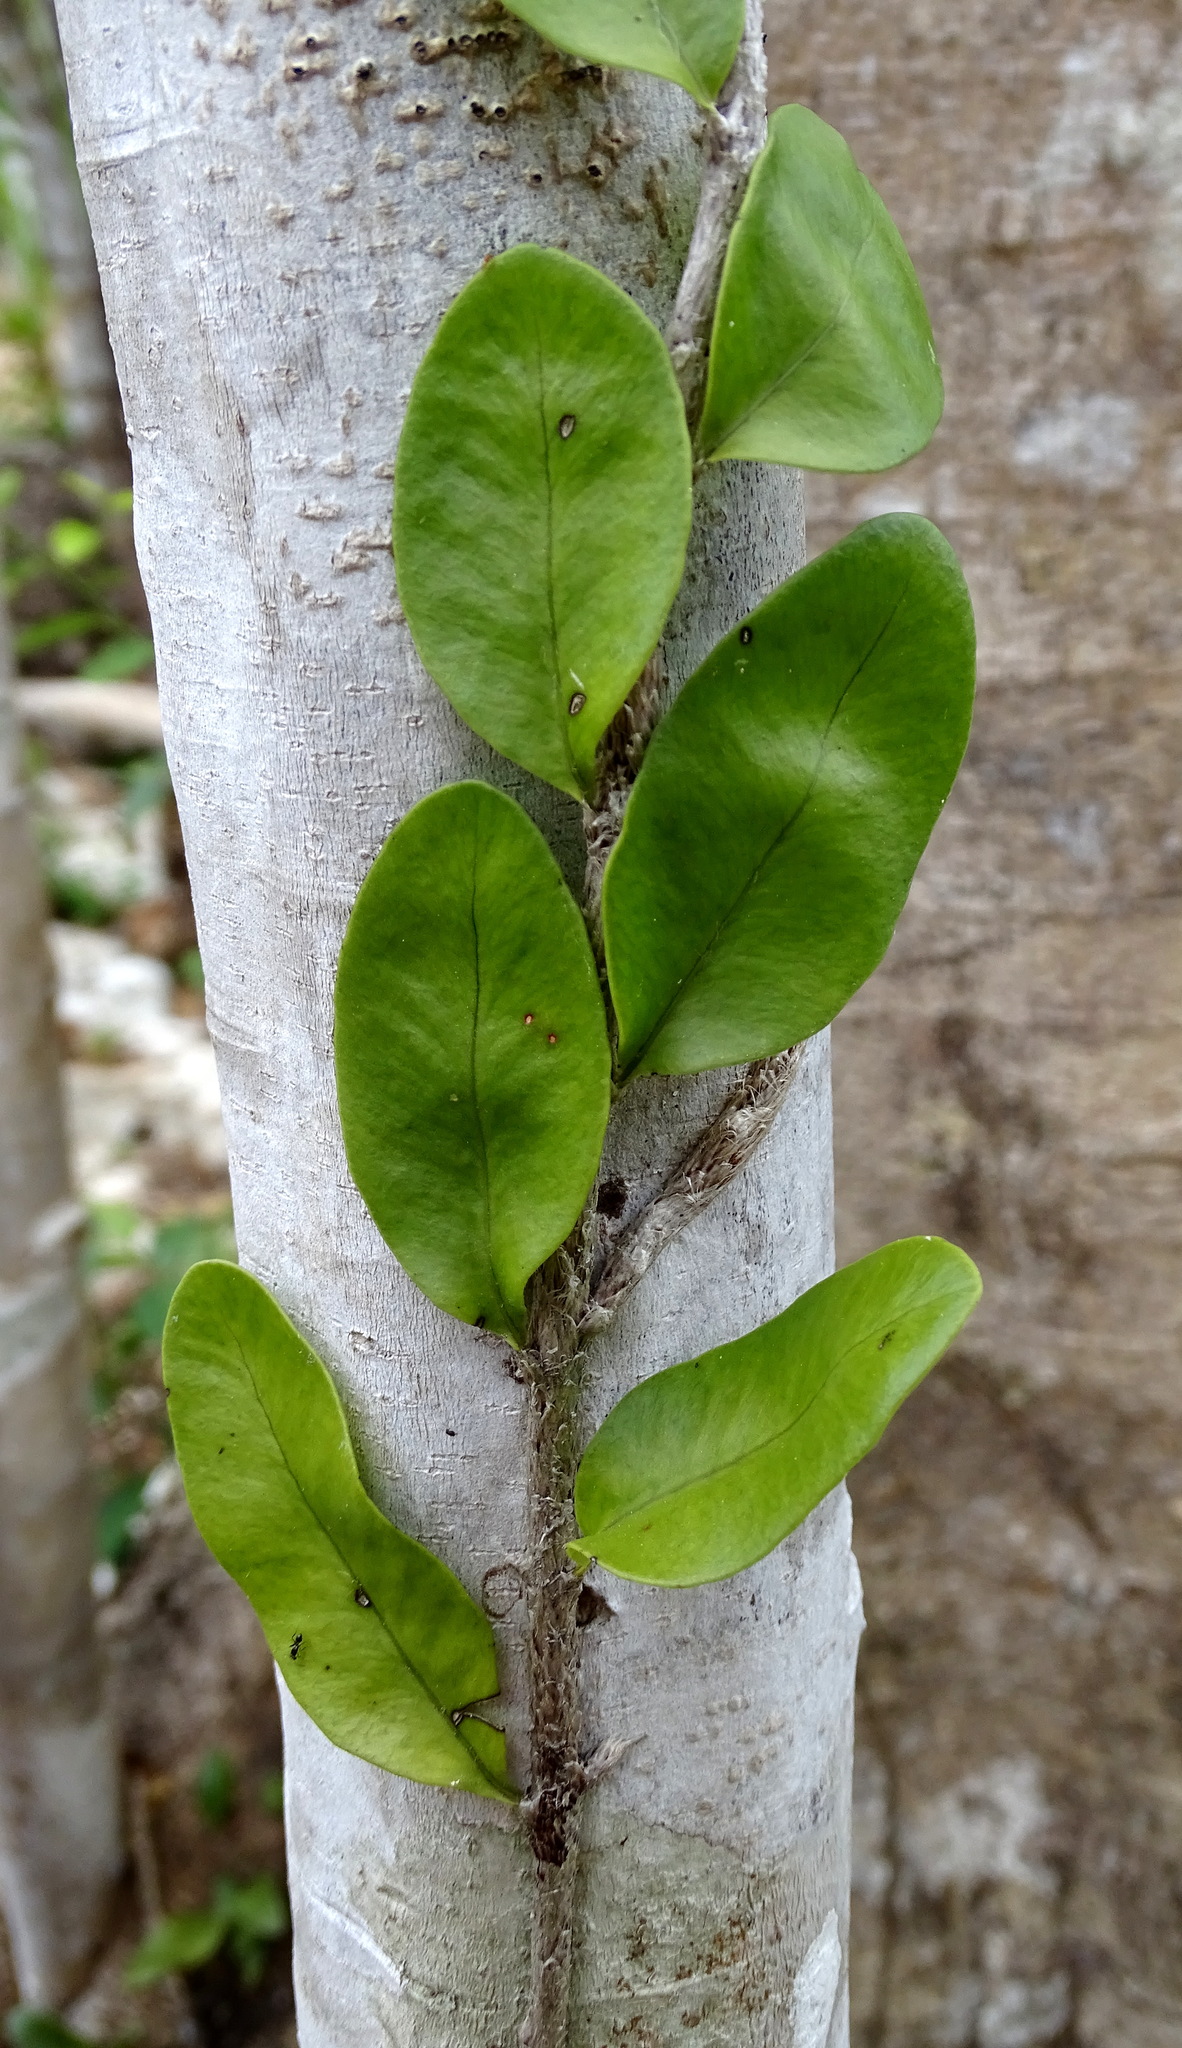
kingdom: Plantae
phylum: Tracheophyta
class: Polypodiopsida
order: Polypodiales
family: Polypodiaceae
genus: Microgramma
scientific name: Microgramma nitida
